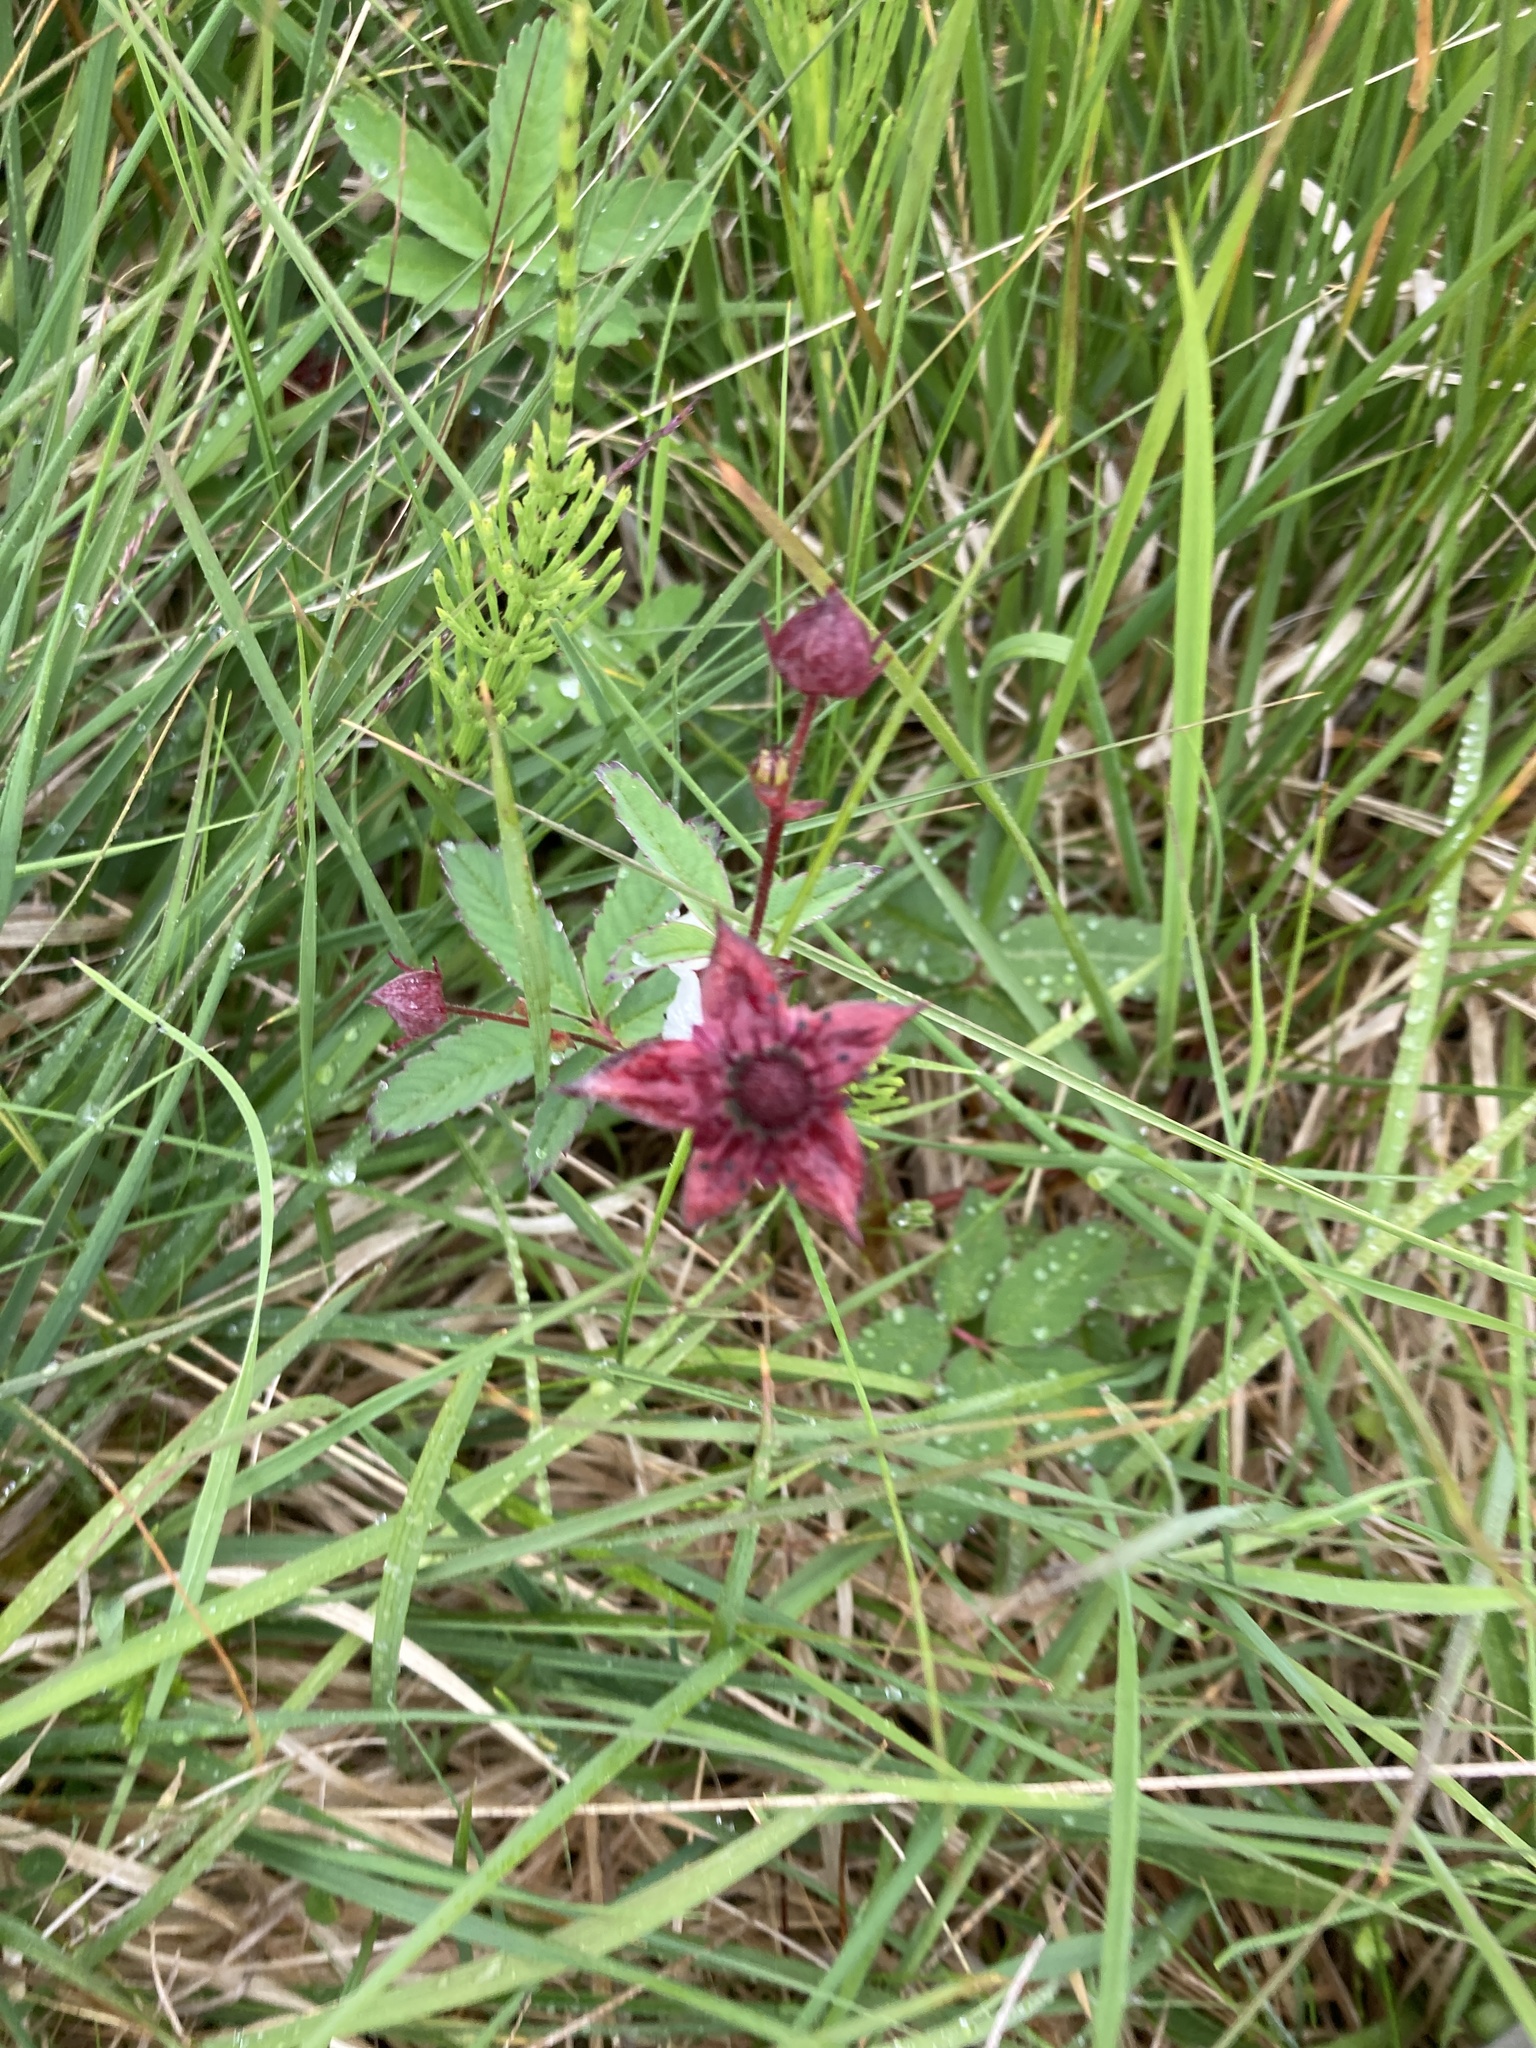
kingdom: Plantae
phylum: Tracheophyta
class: Magnoliopsida
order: Rosales
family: Rosaceae
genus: Comarum
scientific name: Comarum palustre
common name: Marsh cinquefoil
